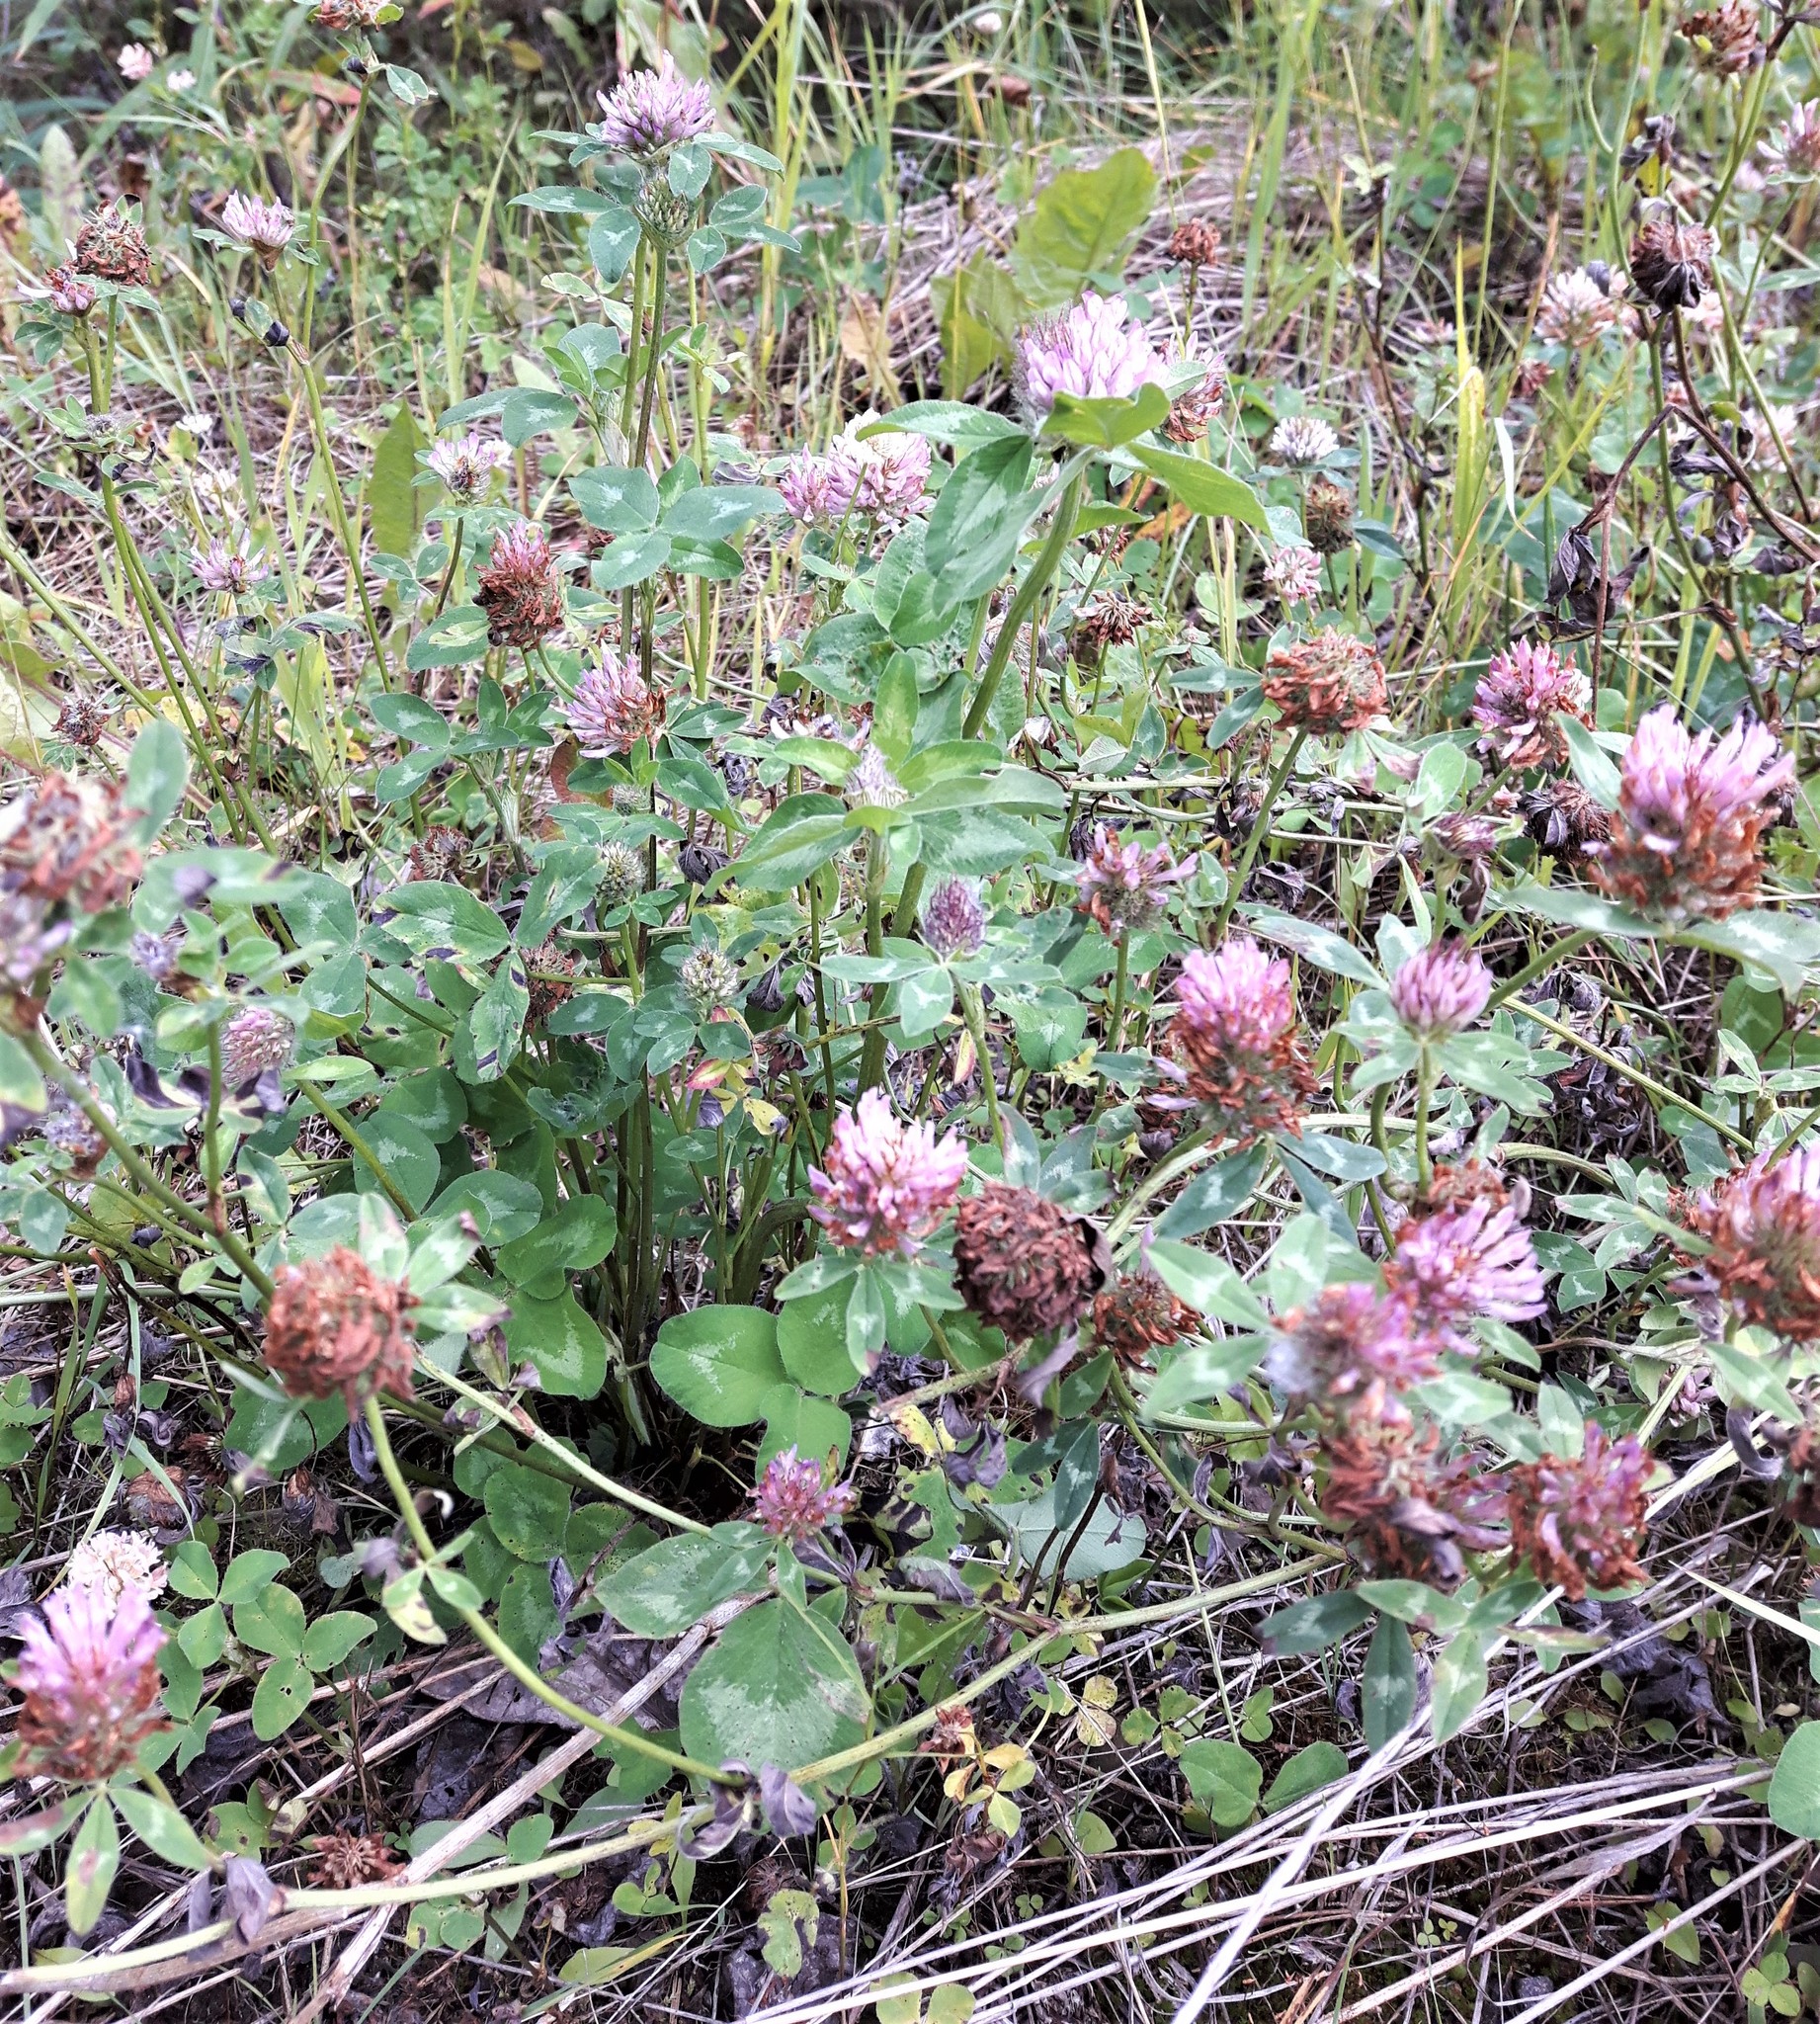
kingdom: Plantae
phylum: Tracheophyta
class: Magnoliopsida
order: Fabales
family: Fabaceae
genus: Trifolium
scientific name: Trifolium pratense
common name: Red clover
